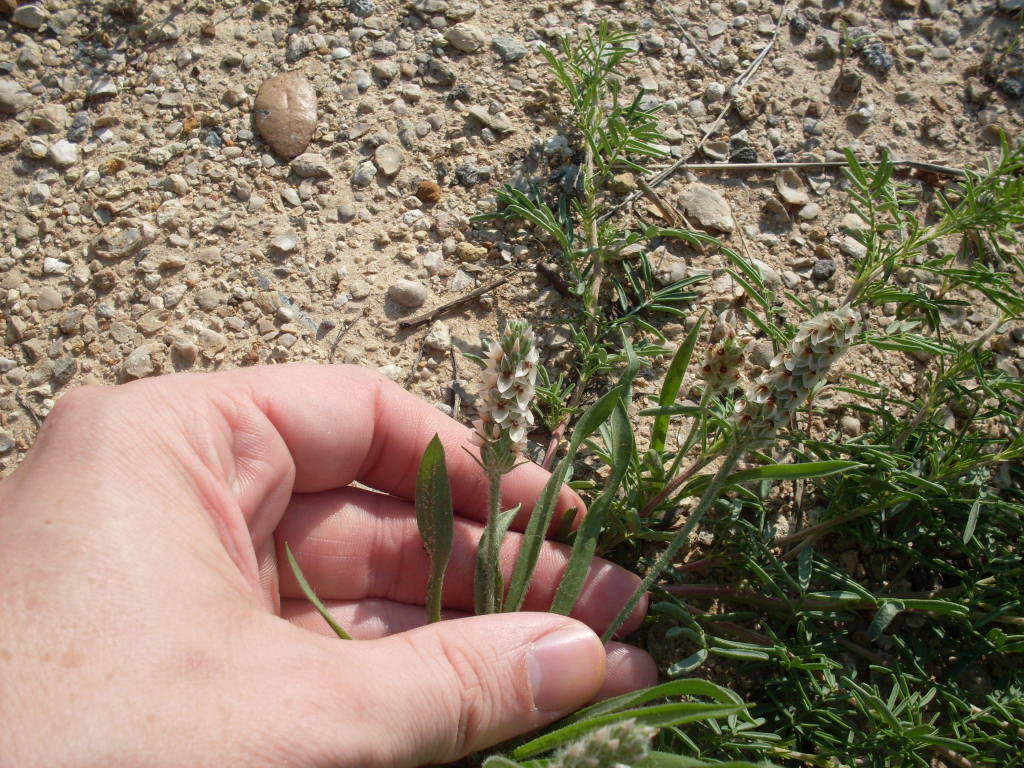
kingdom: Plantae
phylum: Tracheophyta
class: Magnoliopsida
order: Lamiales
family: Plantaginaceae
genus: Plantago
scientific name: Plantago helleri
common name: Heller's plantain
